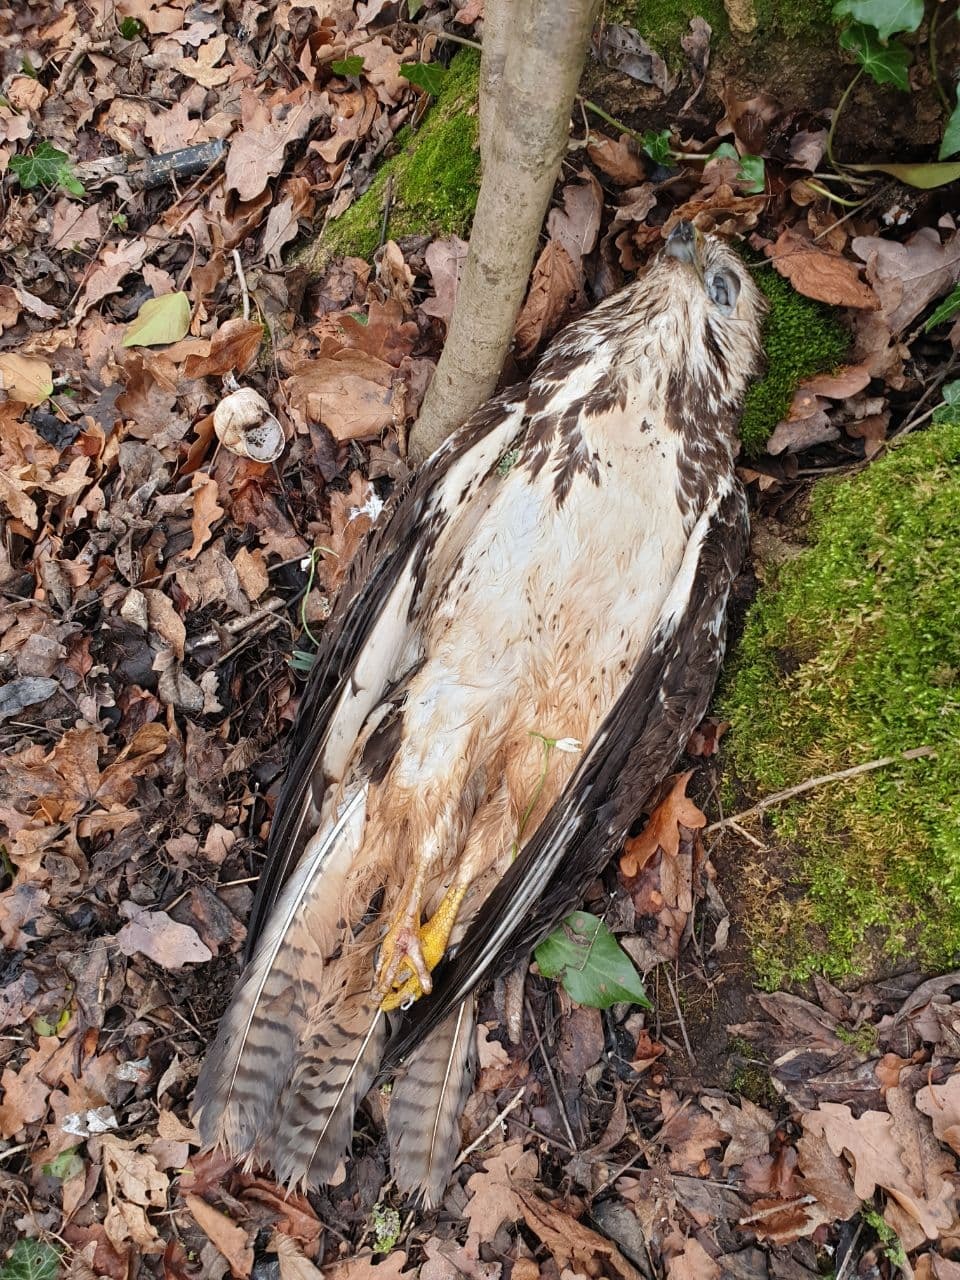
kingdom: Animalia
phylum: Chordata
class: Aves
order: Accipitriformes
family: Accipitridae
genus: Buteo
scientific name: Buteo buteo
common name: Common buzzard
